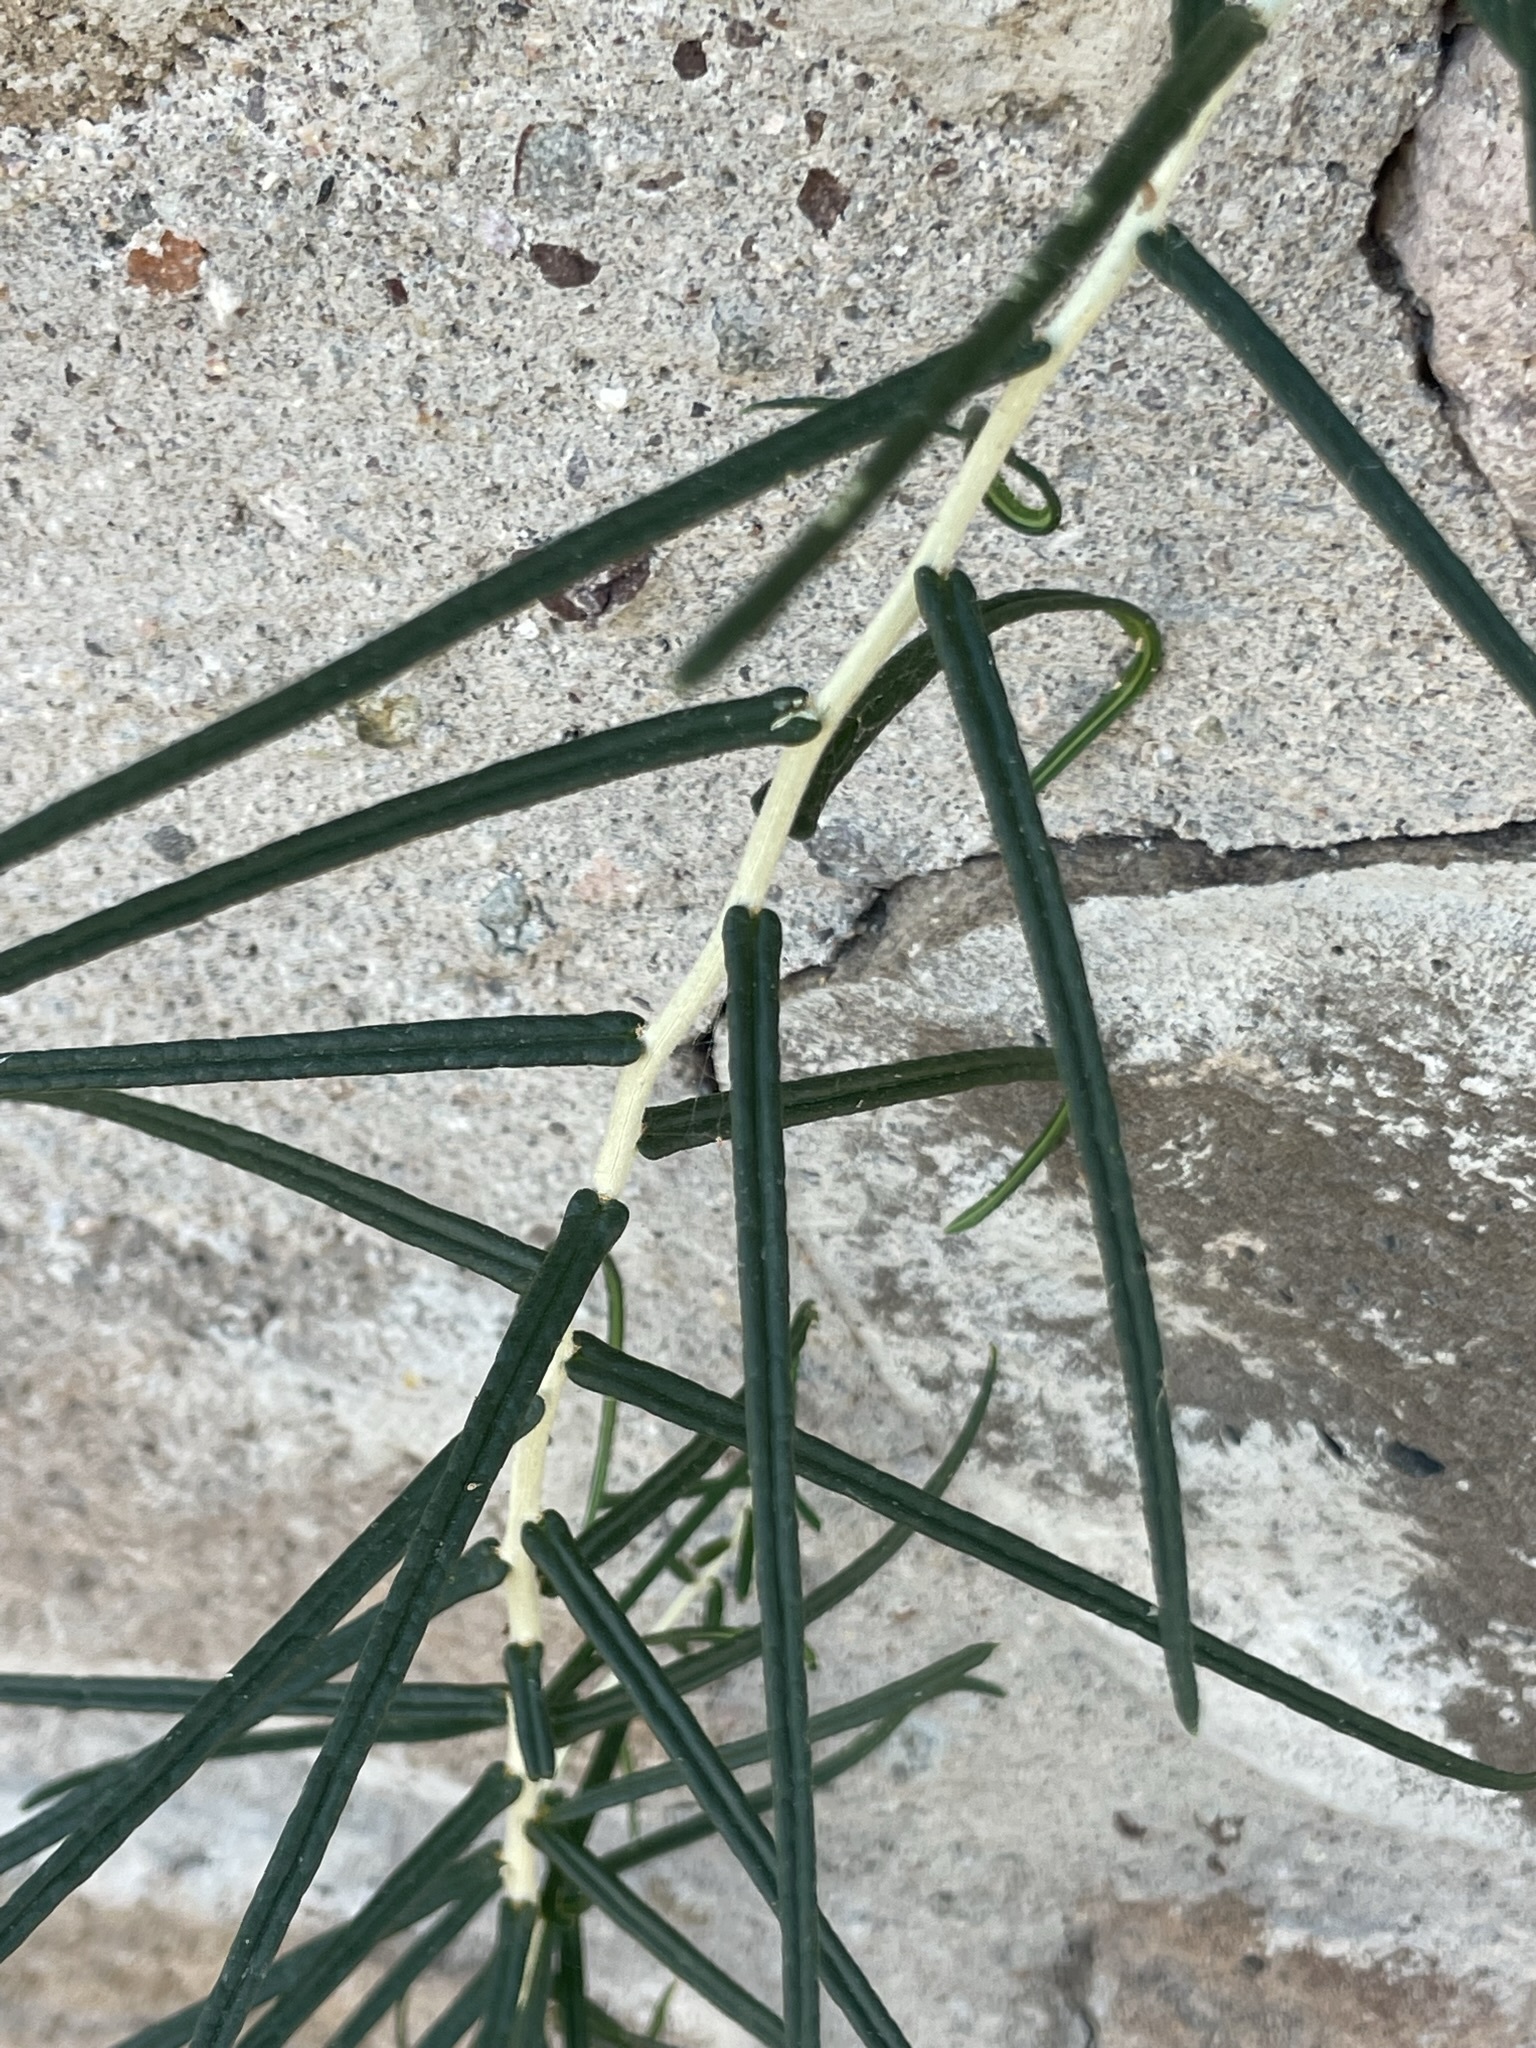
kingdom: Plantae
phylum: Tracheophyta
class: Magnoliopsida
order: Brassicales
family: Stixaceae
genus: Forchhammeria
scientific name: Forchhammeria watsonii
